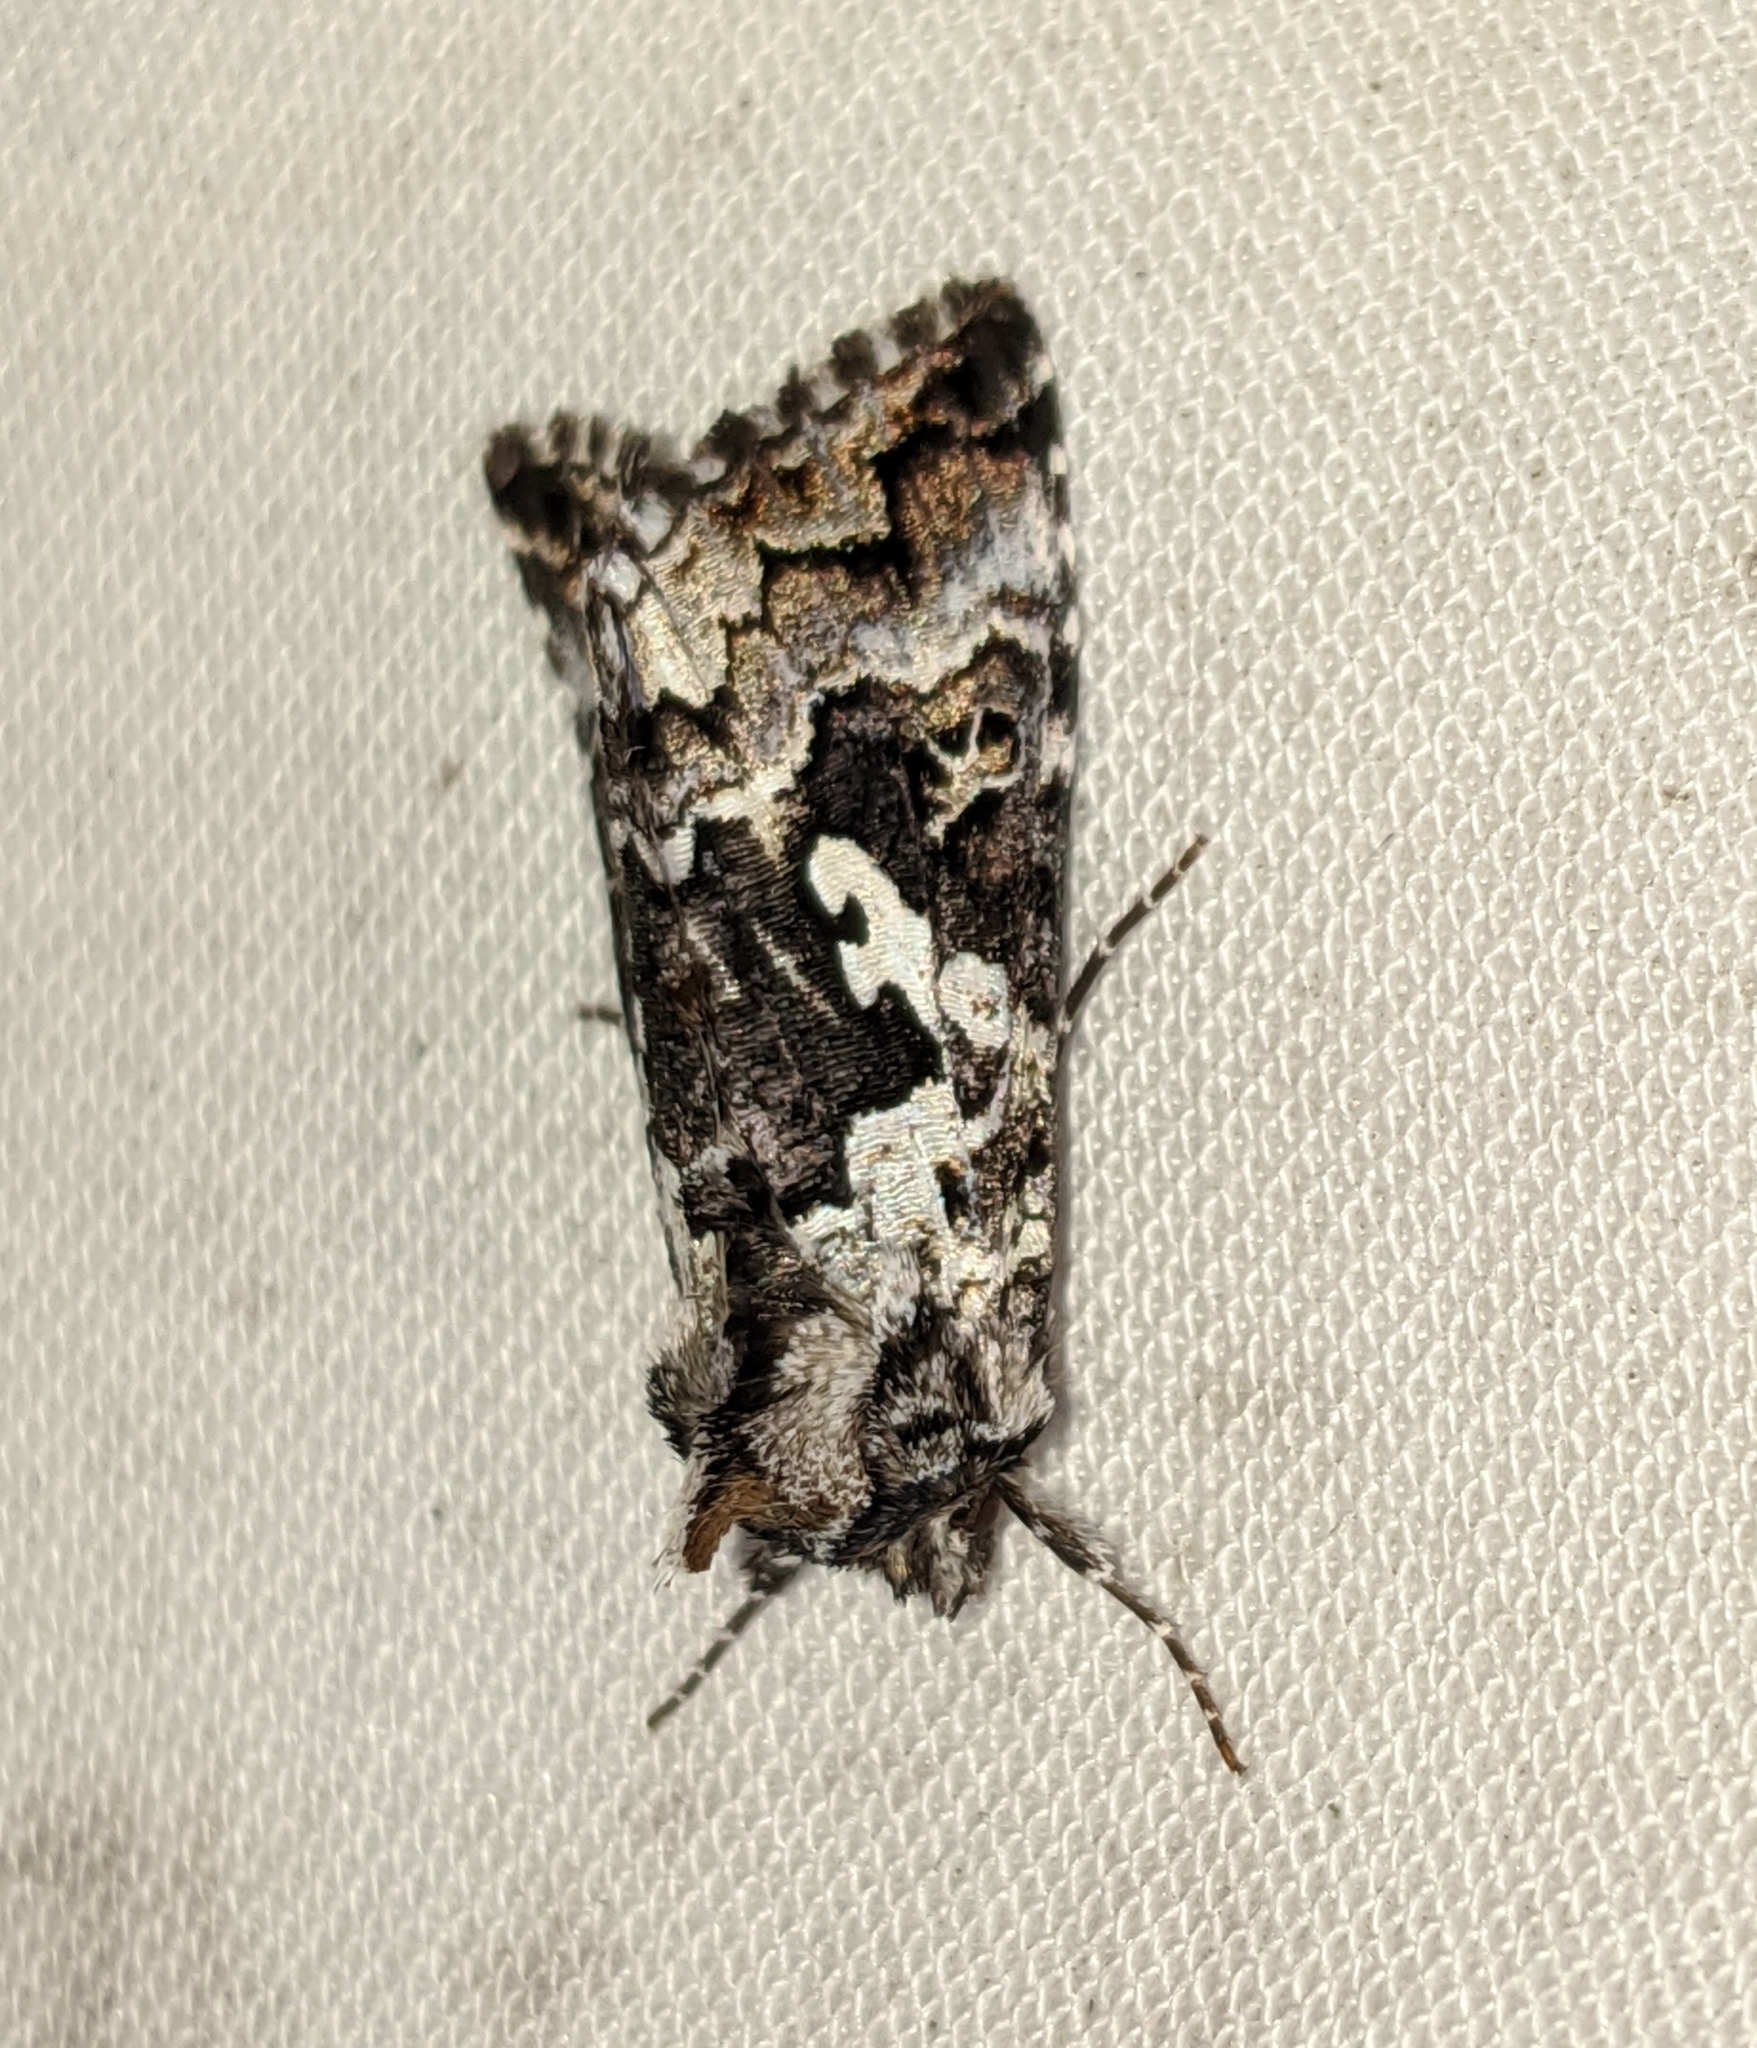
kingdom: Animalia
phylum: Arthropoda
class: Insecta
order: Lepidoptera
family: Noctuidae
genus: Syngrapha
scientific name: Syngrapha rectangula
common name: Angulated cutworm
